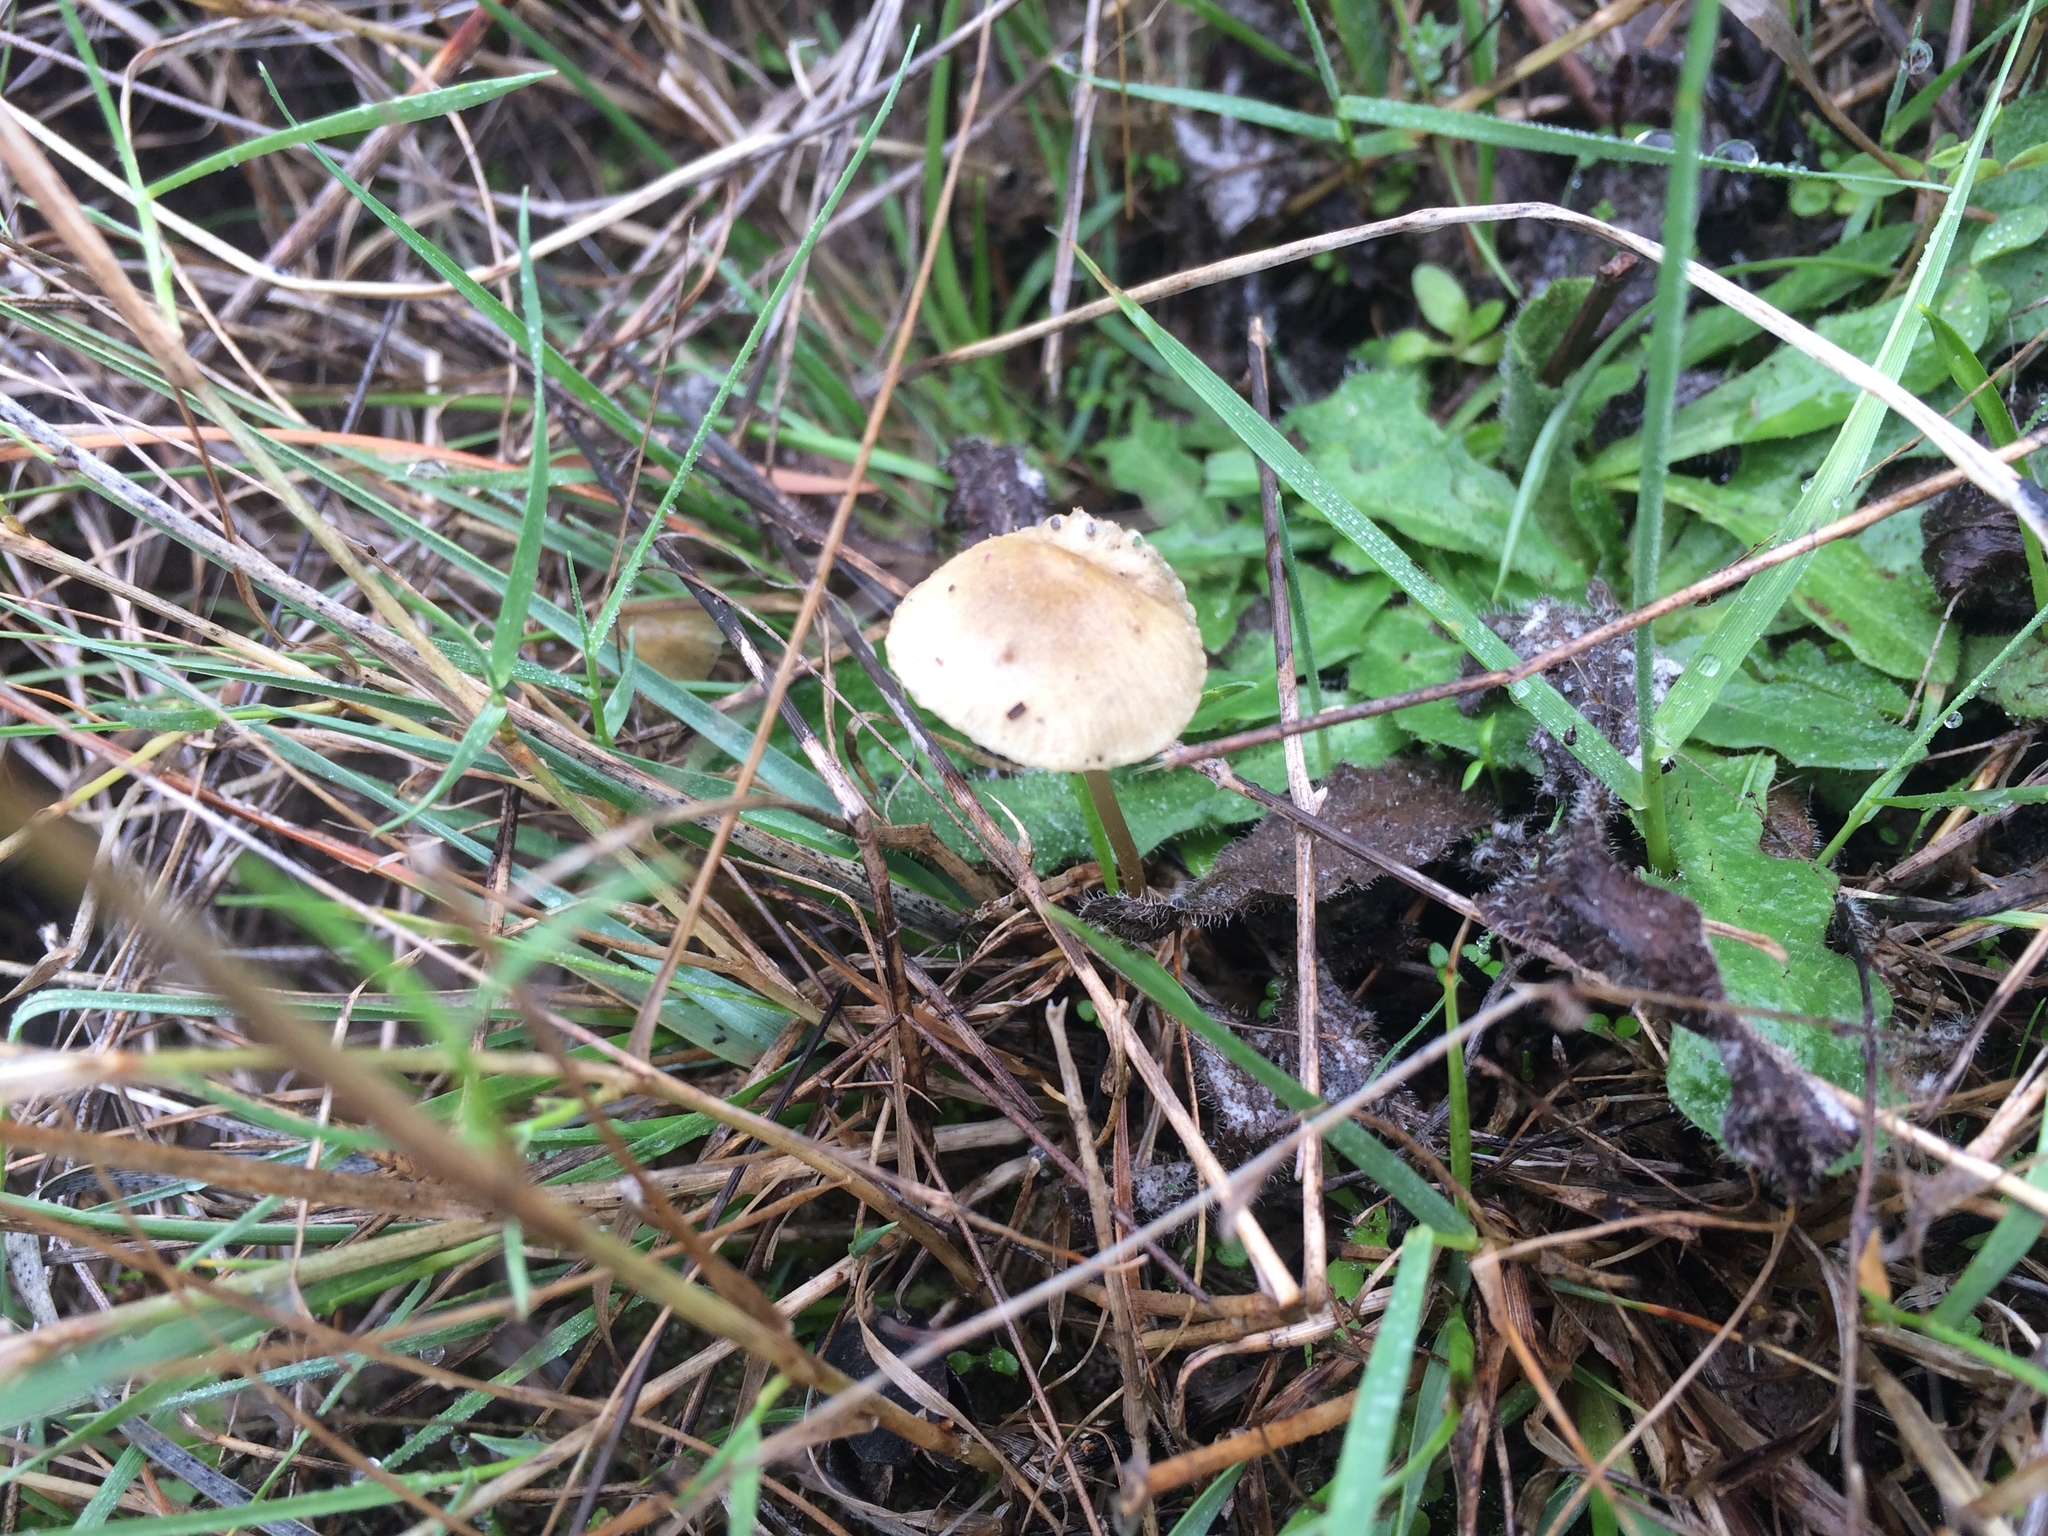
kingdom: Fungi
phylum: Basidiomycota
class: Agaricomycetes
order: Agaricales
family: Mycenaceae
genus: Mycena
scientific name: Mycena citrinomarginata
